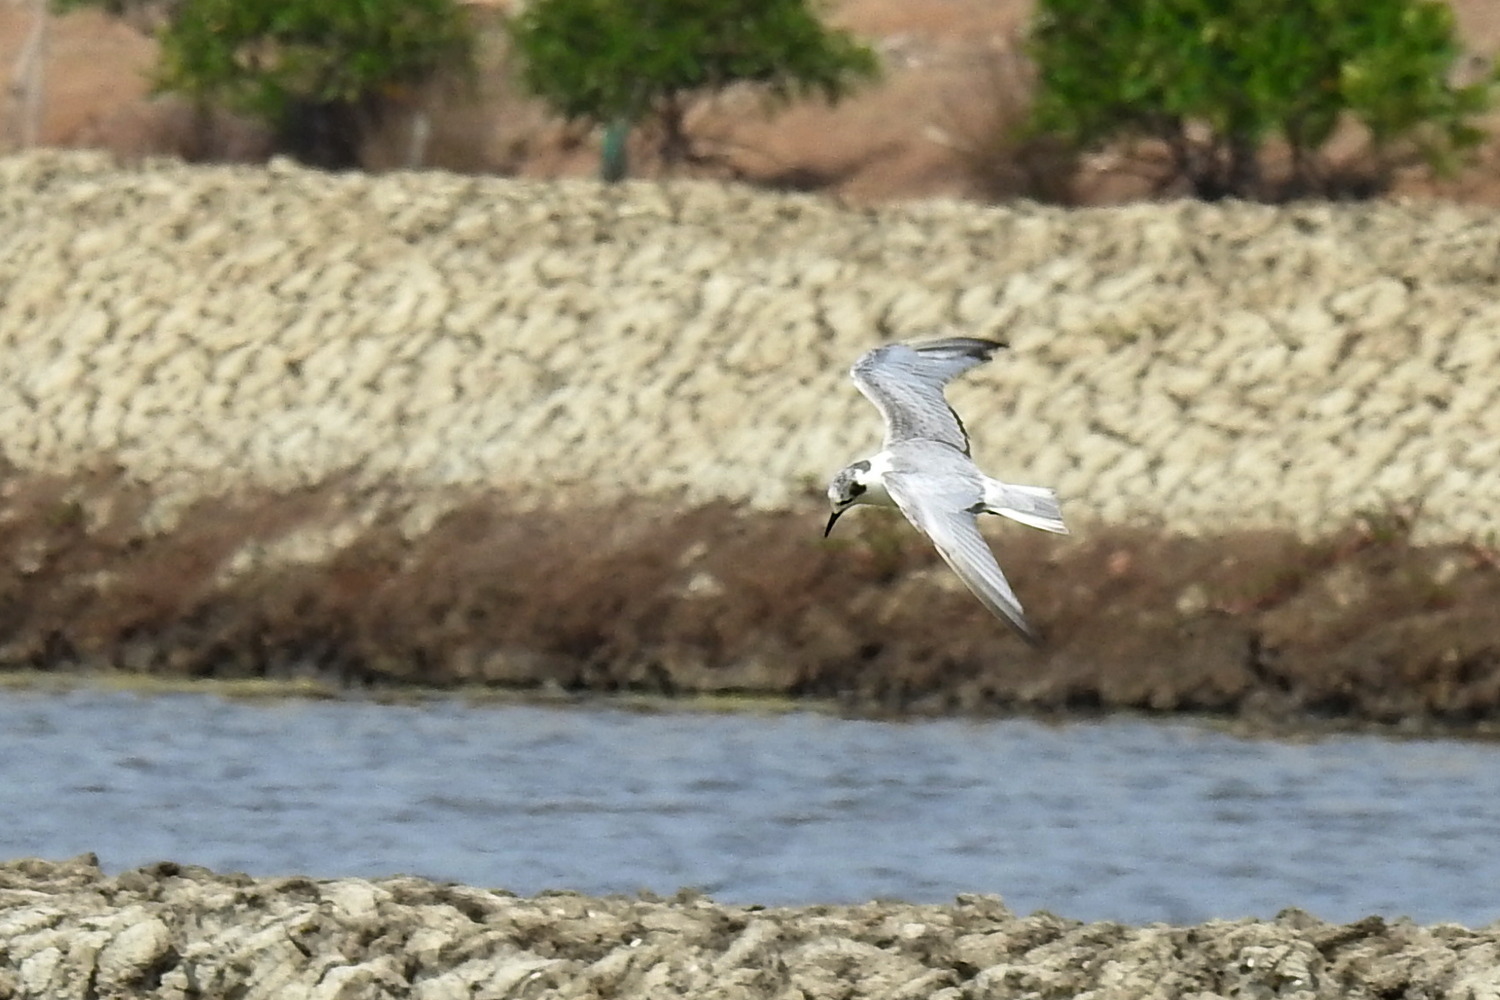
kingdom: Animalia
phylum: Chordata
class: Aves
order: Charadriiformes
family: Laridae
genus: Chlidonias
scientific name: Chlidonias leucopterus
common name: White-winged tern
